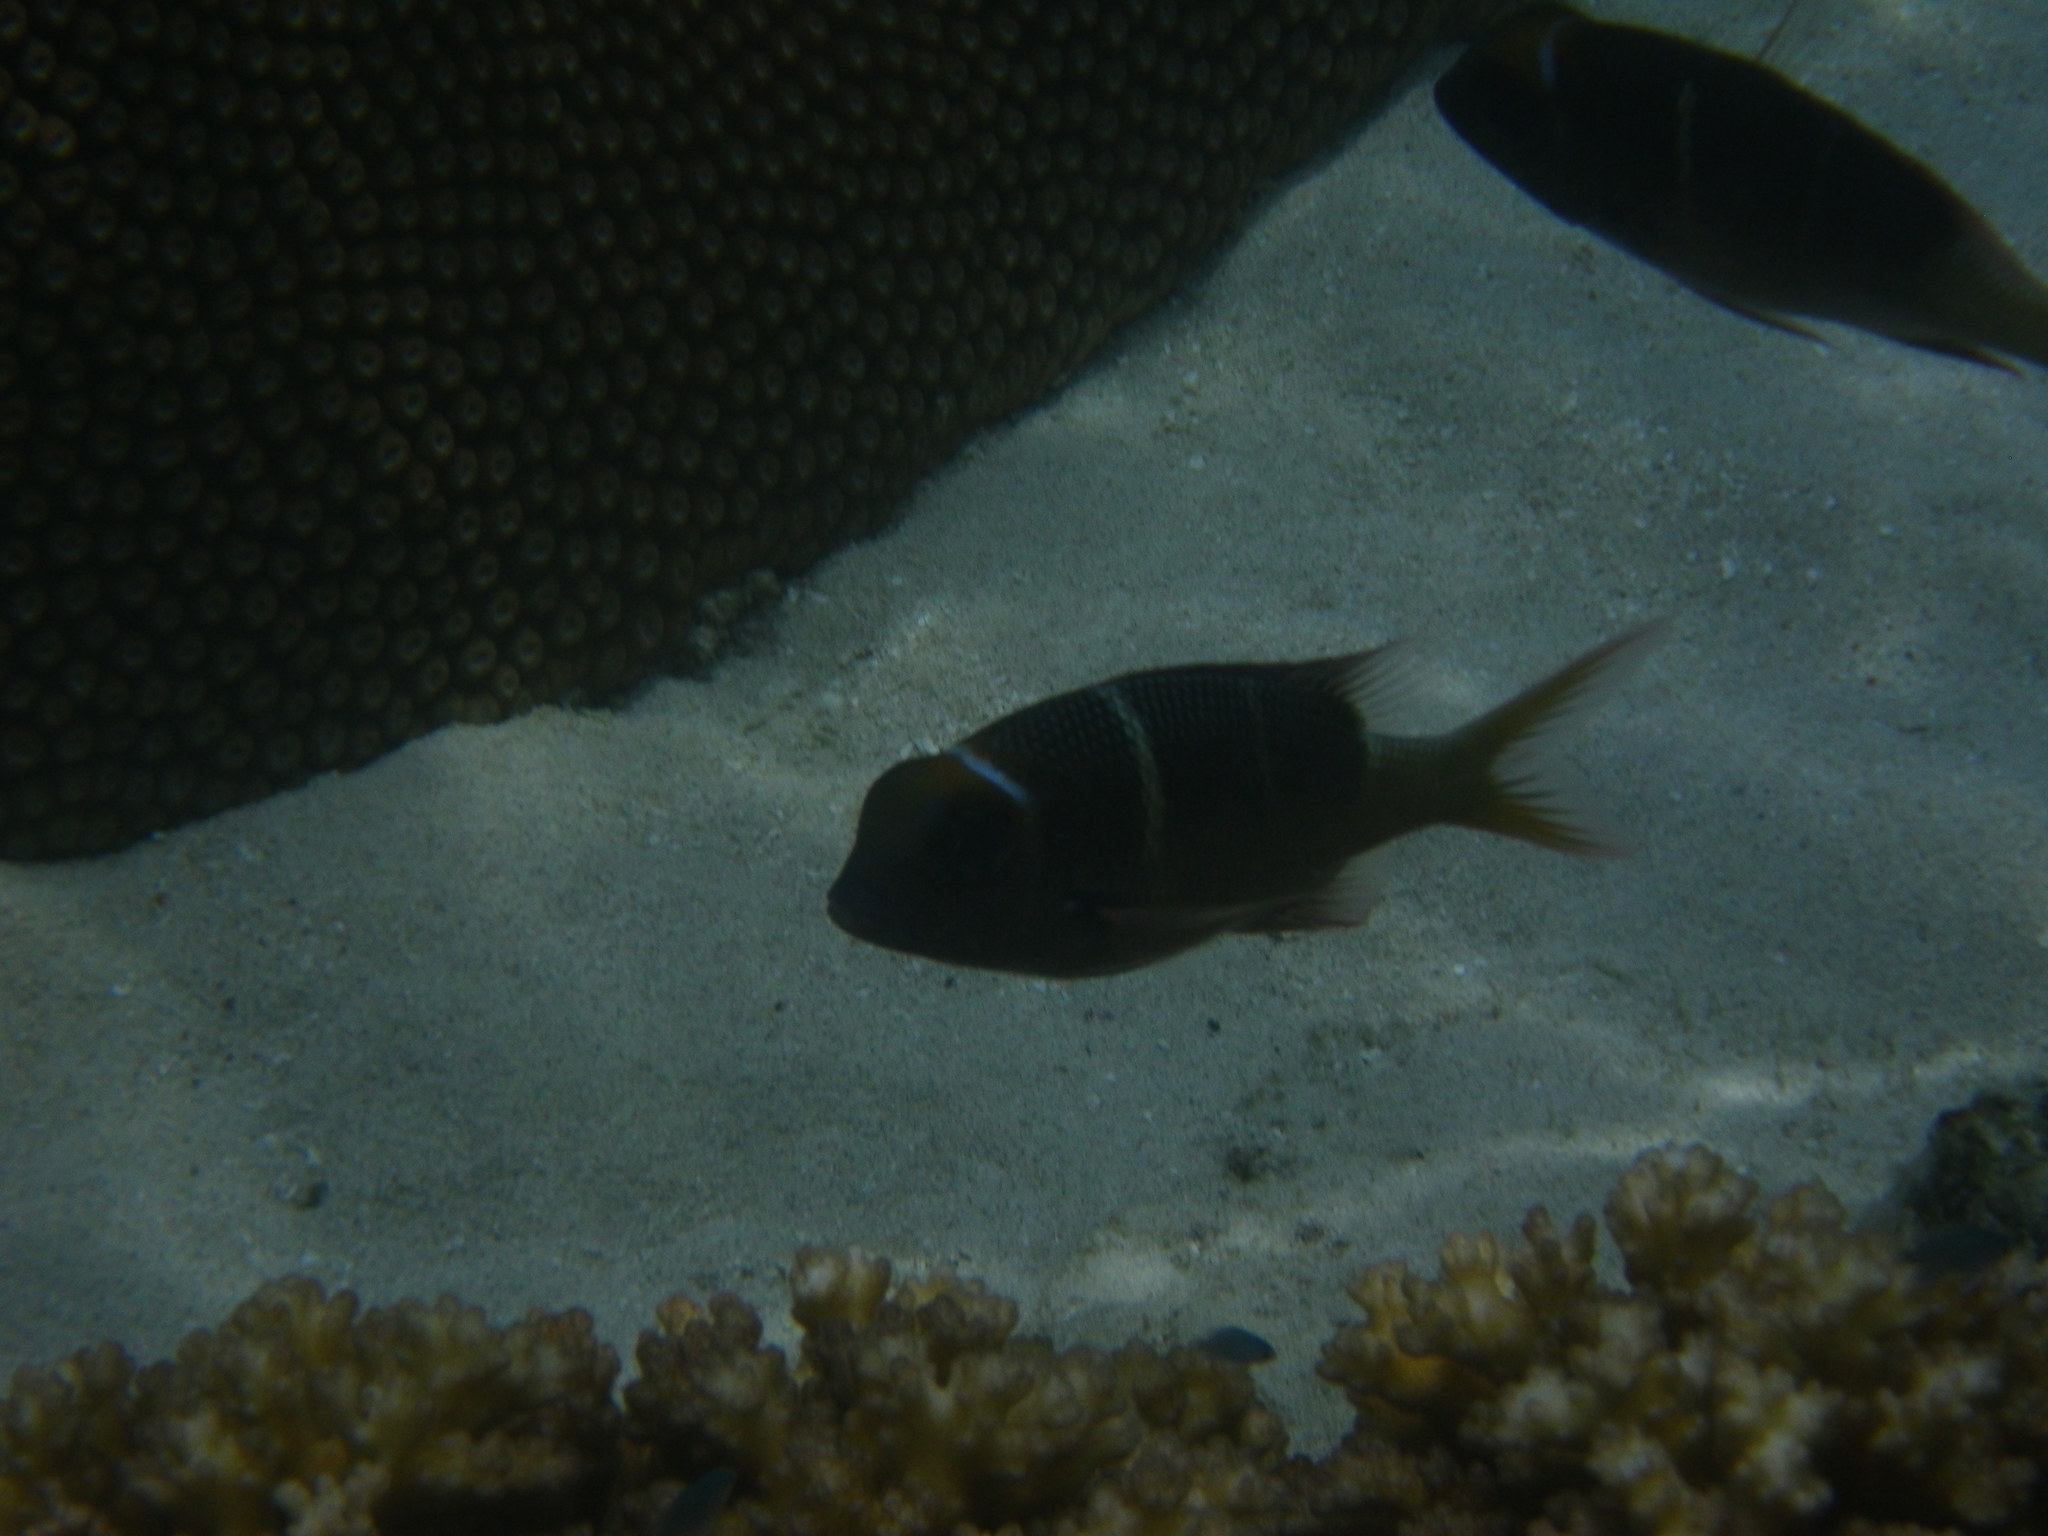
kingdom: Animalia
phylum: Chordata
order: Perciformes
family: Lethrinidae
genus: Monotaxis
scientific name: Monotaxis heterodon
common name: Redfin emperor
